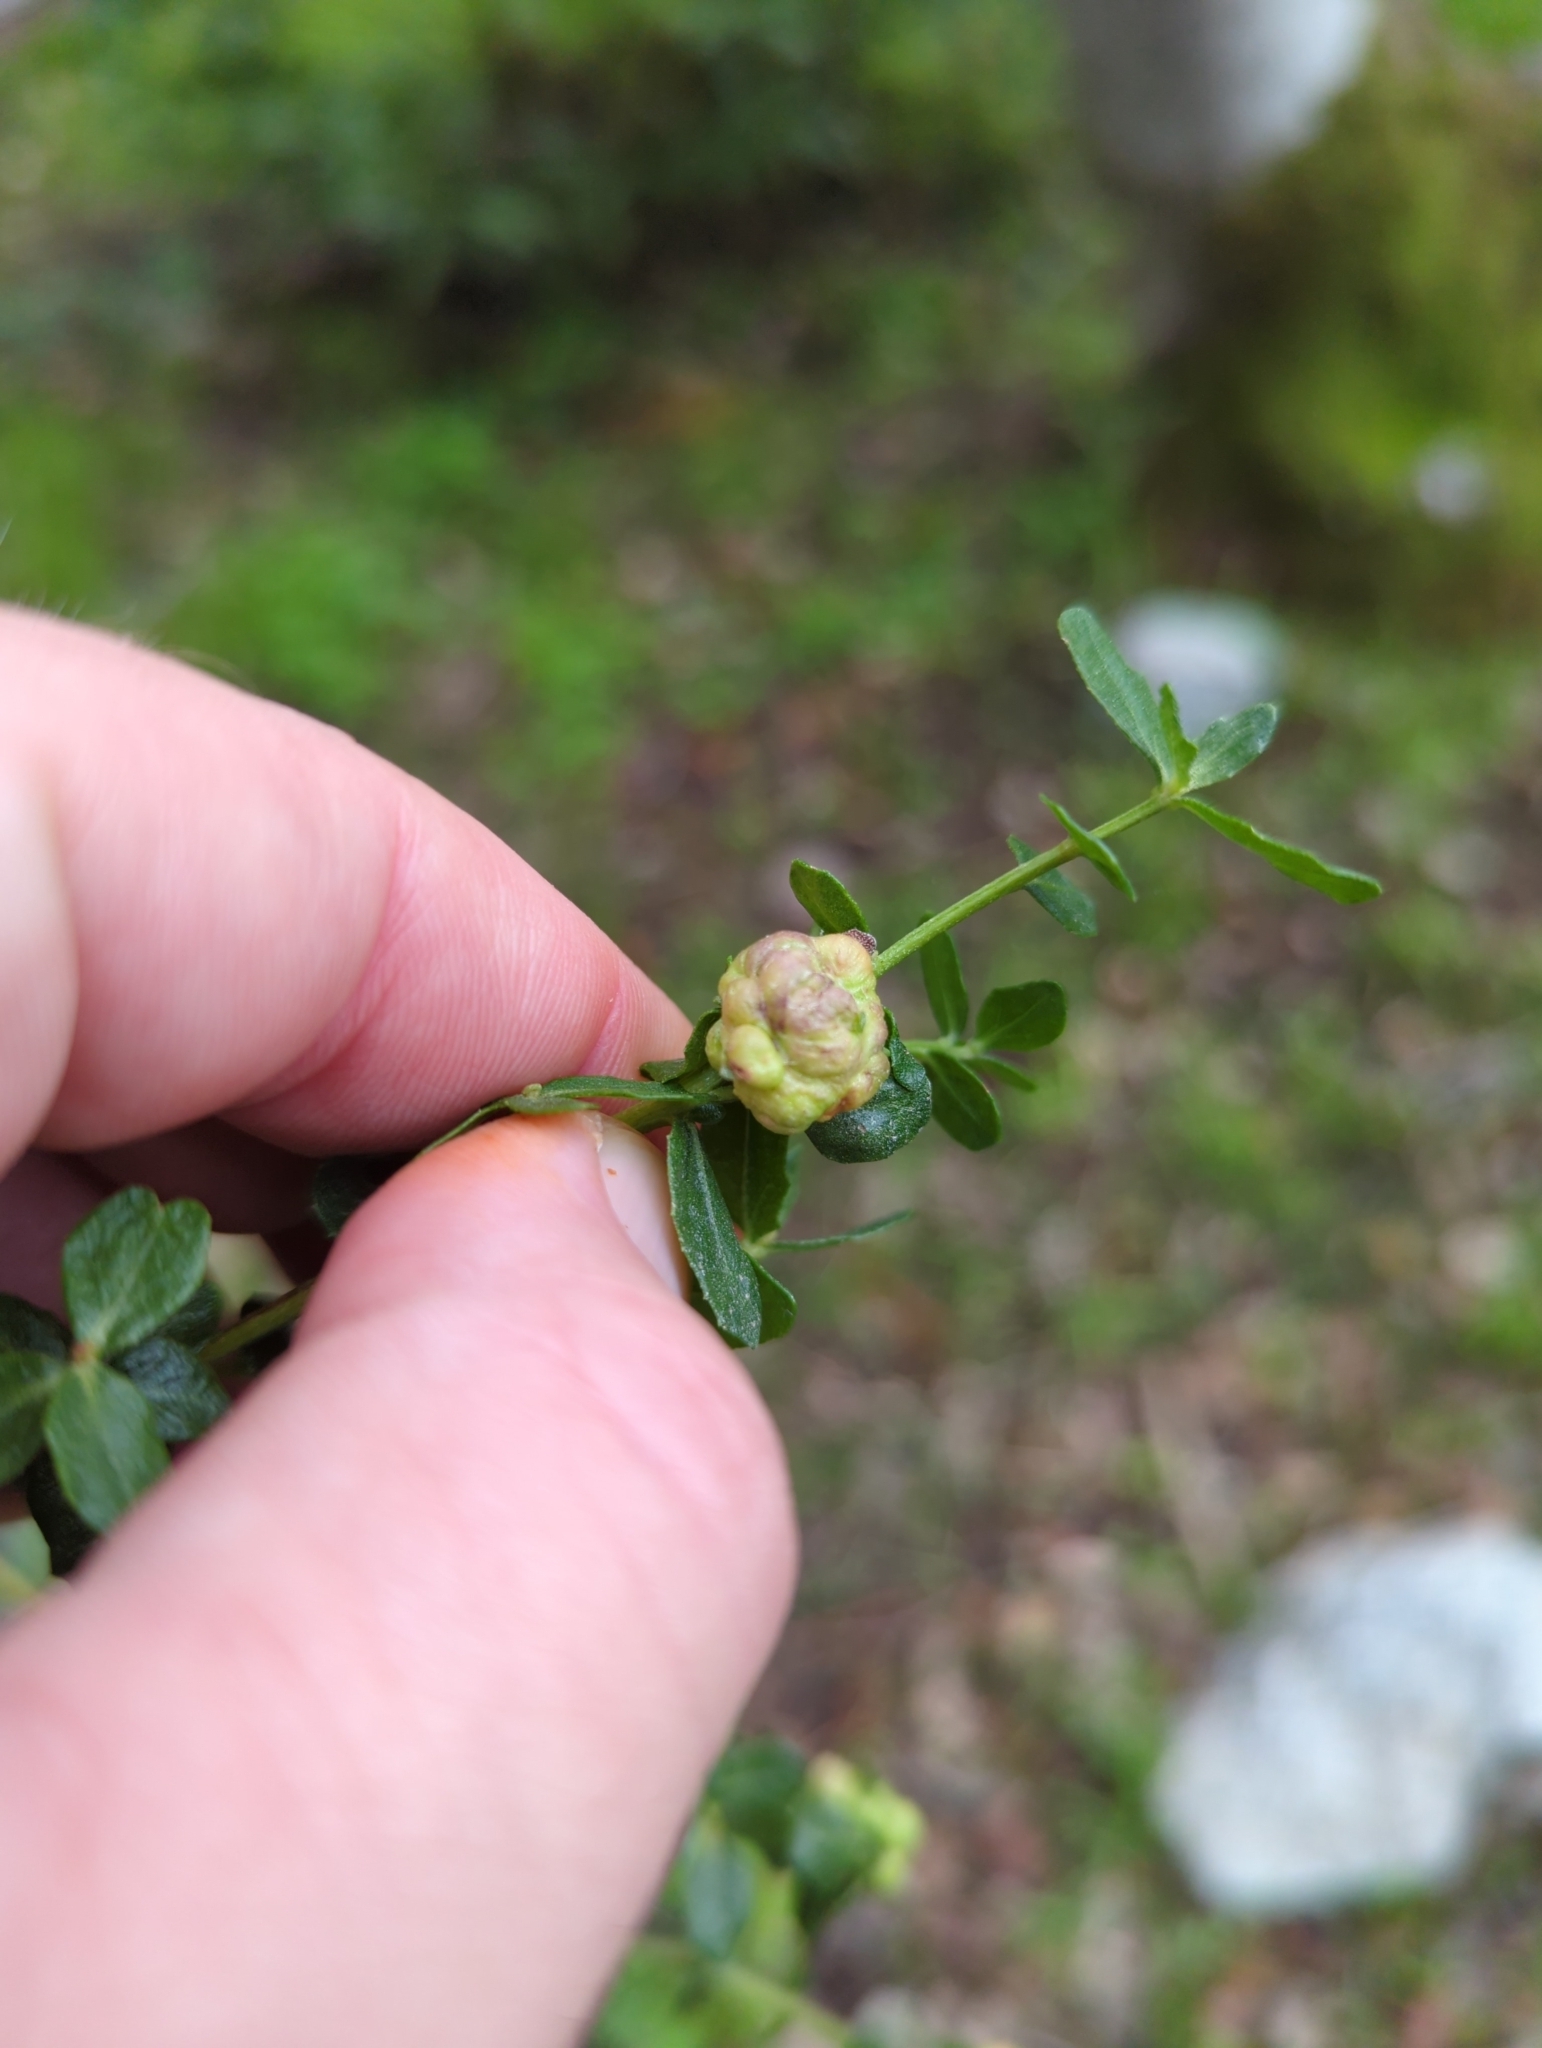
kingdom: Animalia
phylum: Arthropoda
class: Insecta
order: Diptera
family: Cecidomyiidae
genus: Rhopalomyia
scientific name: Rhopalomyia californica
